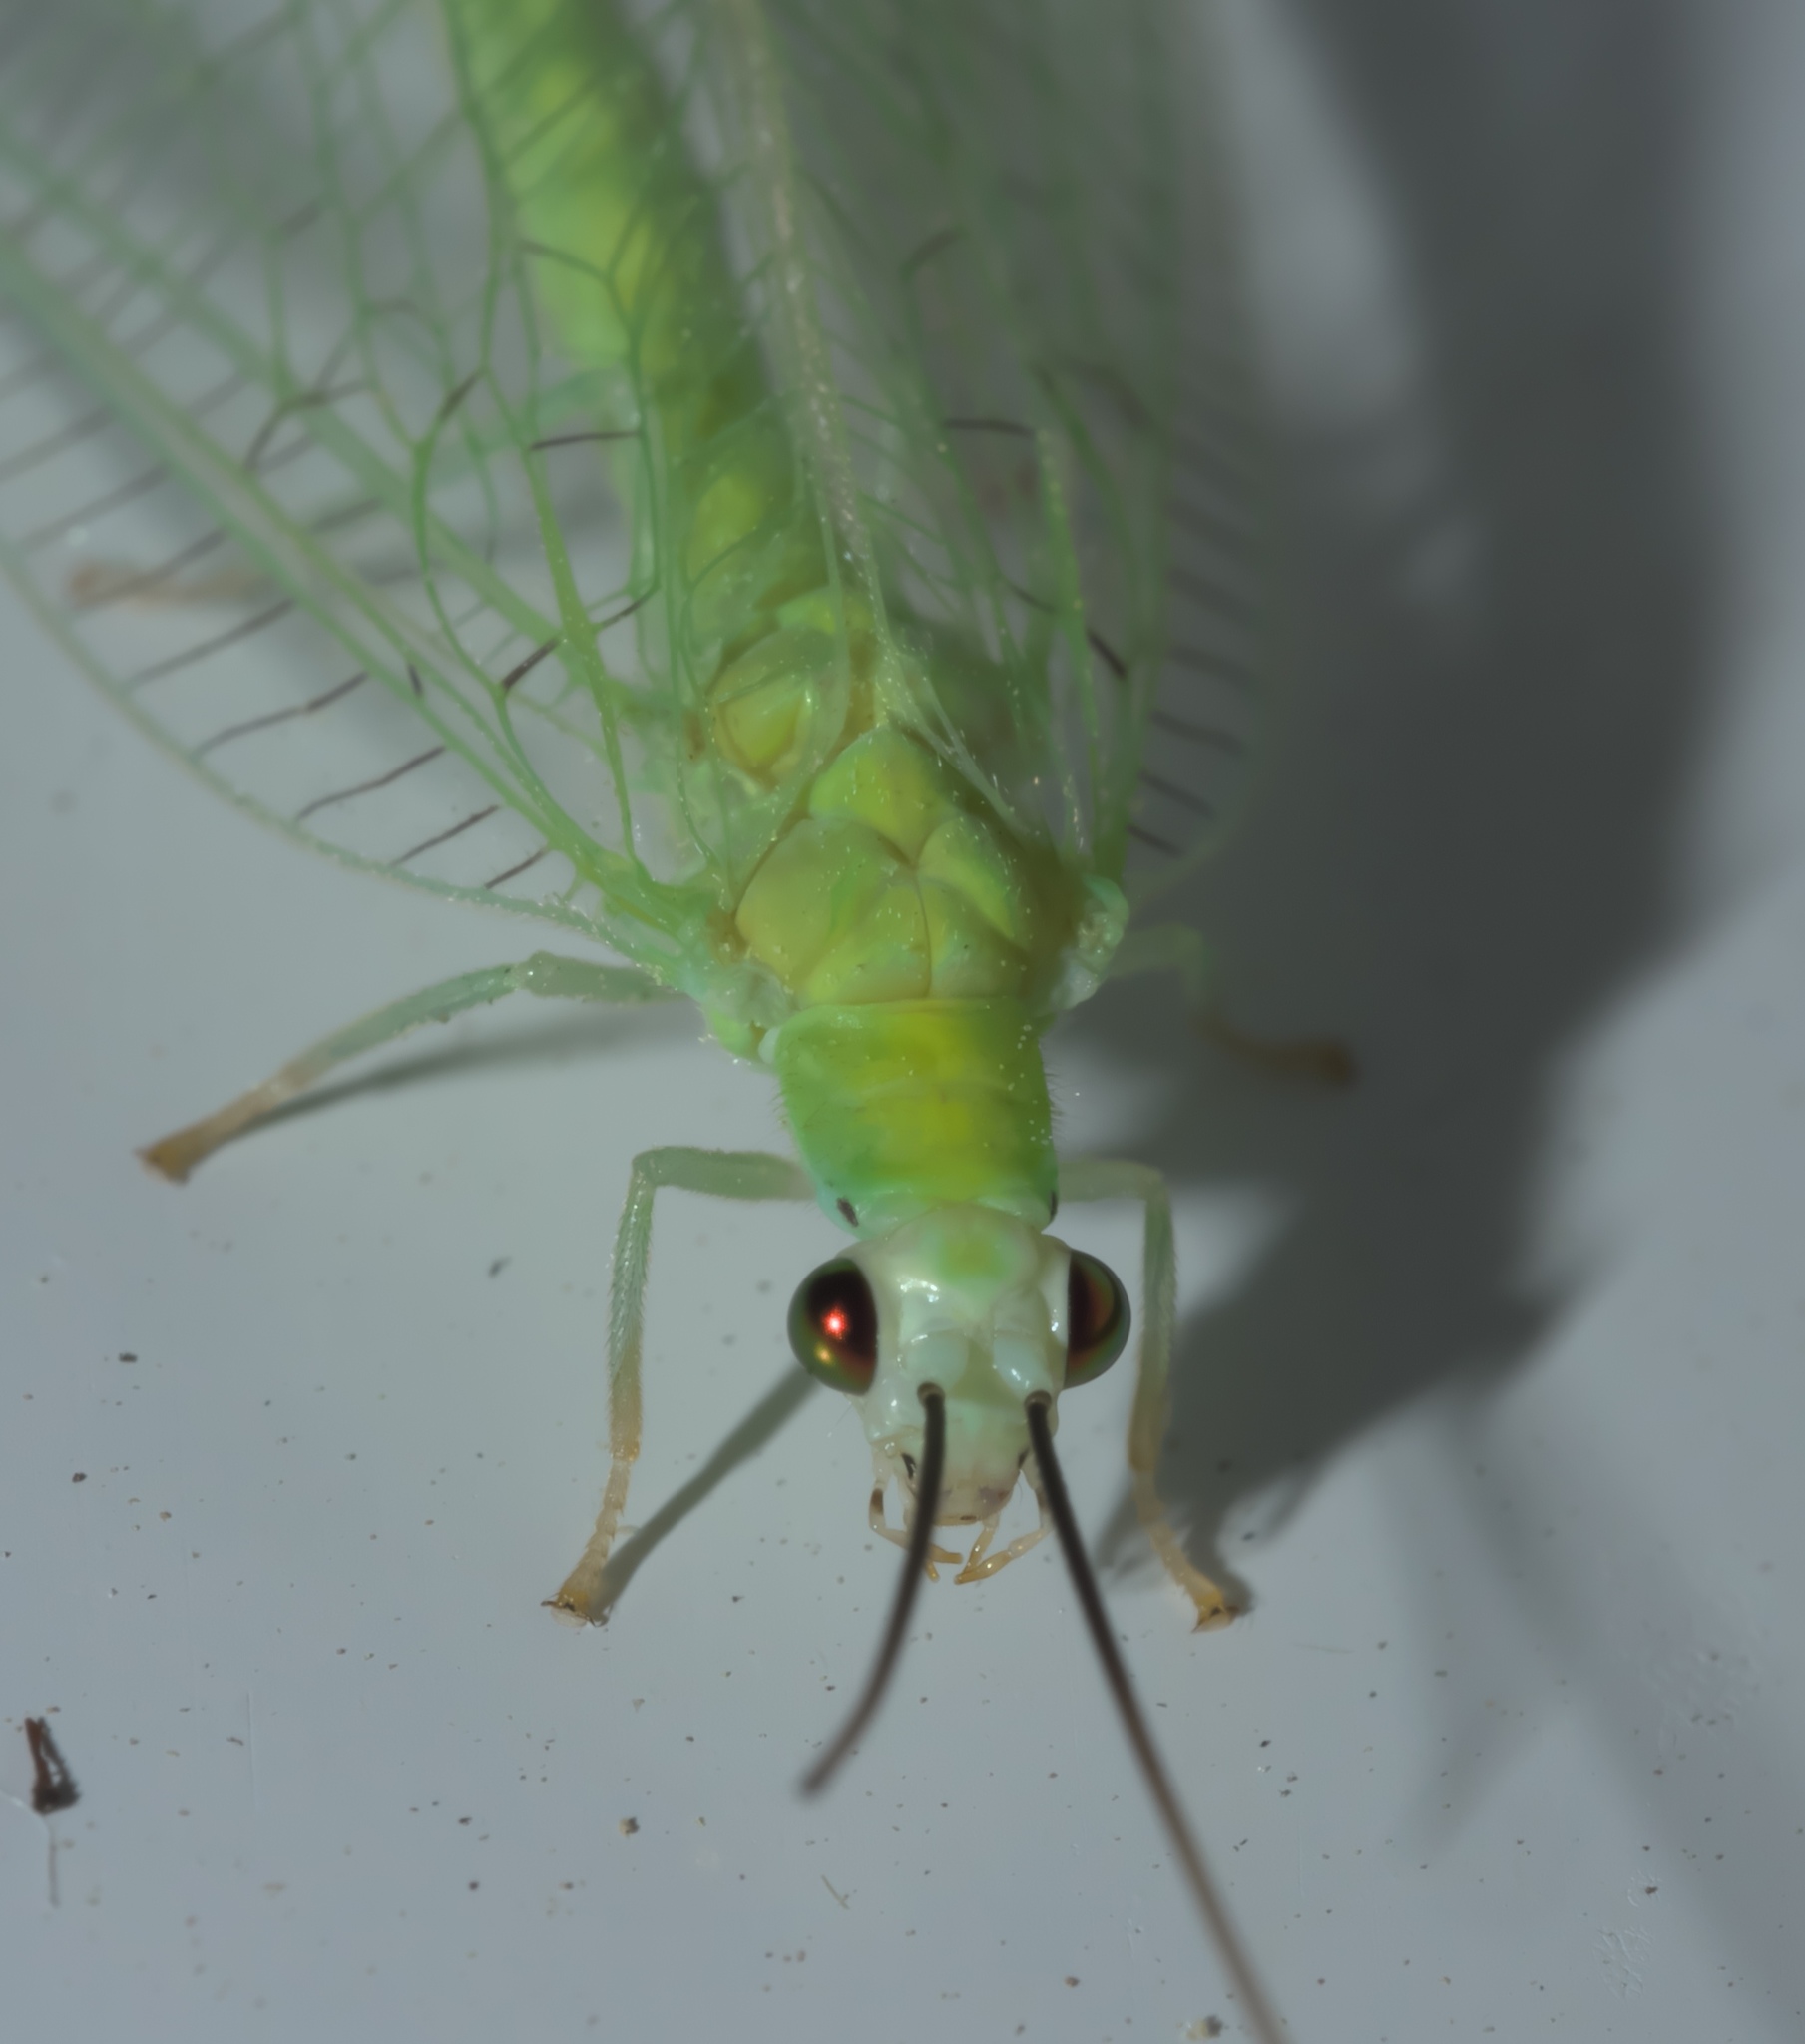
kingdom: Animalia
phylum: Arthropoda
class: Insecta
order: Neuroptera
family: Chrysopidae
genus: Chrysopa
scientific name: Chrysopa nigricornis
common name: Black-horned green lacewing
